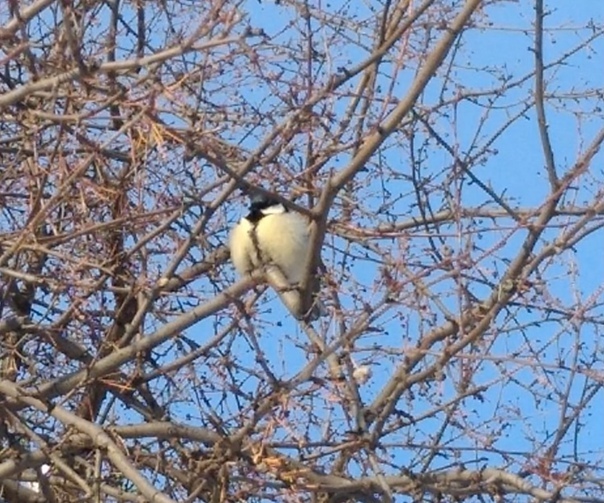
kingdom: Animalia
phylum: Chordata
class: Aves
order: Passeriformes
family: Paridae
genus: Parus
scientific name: Parus major
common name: Great tit
